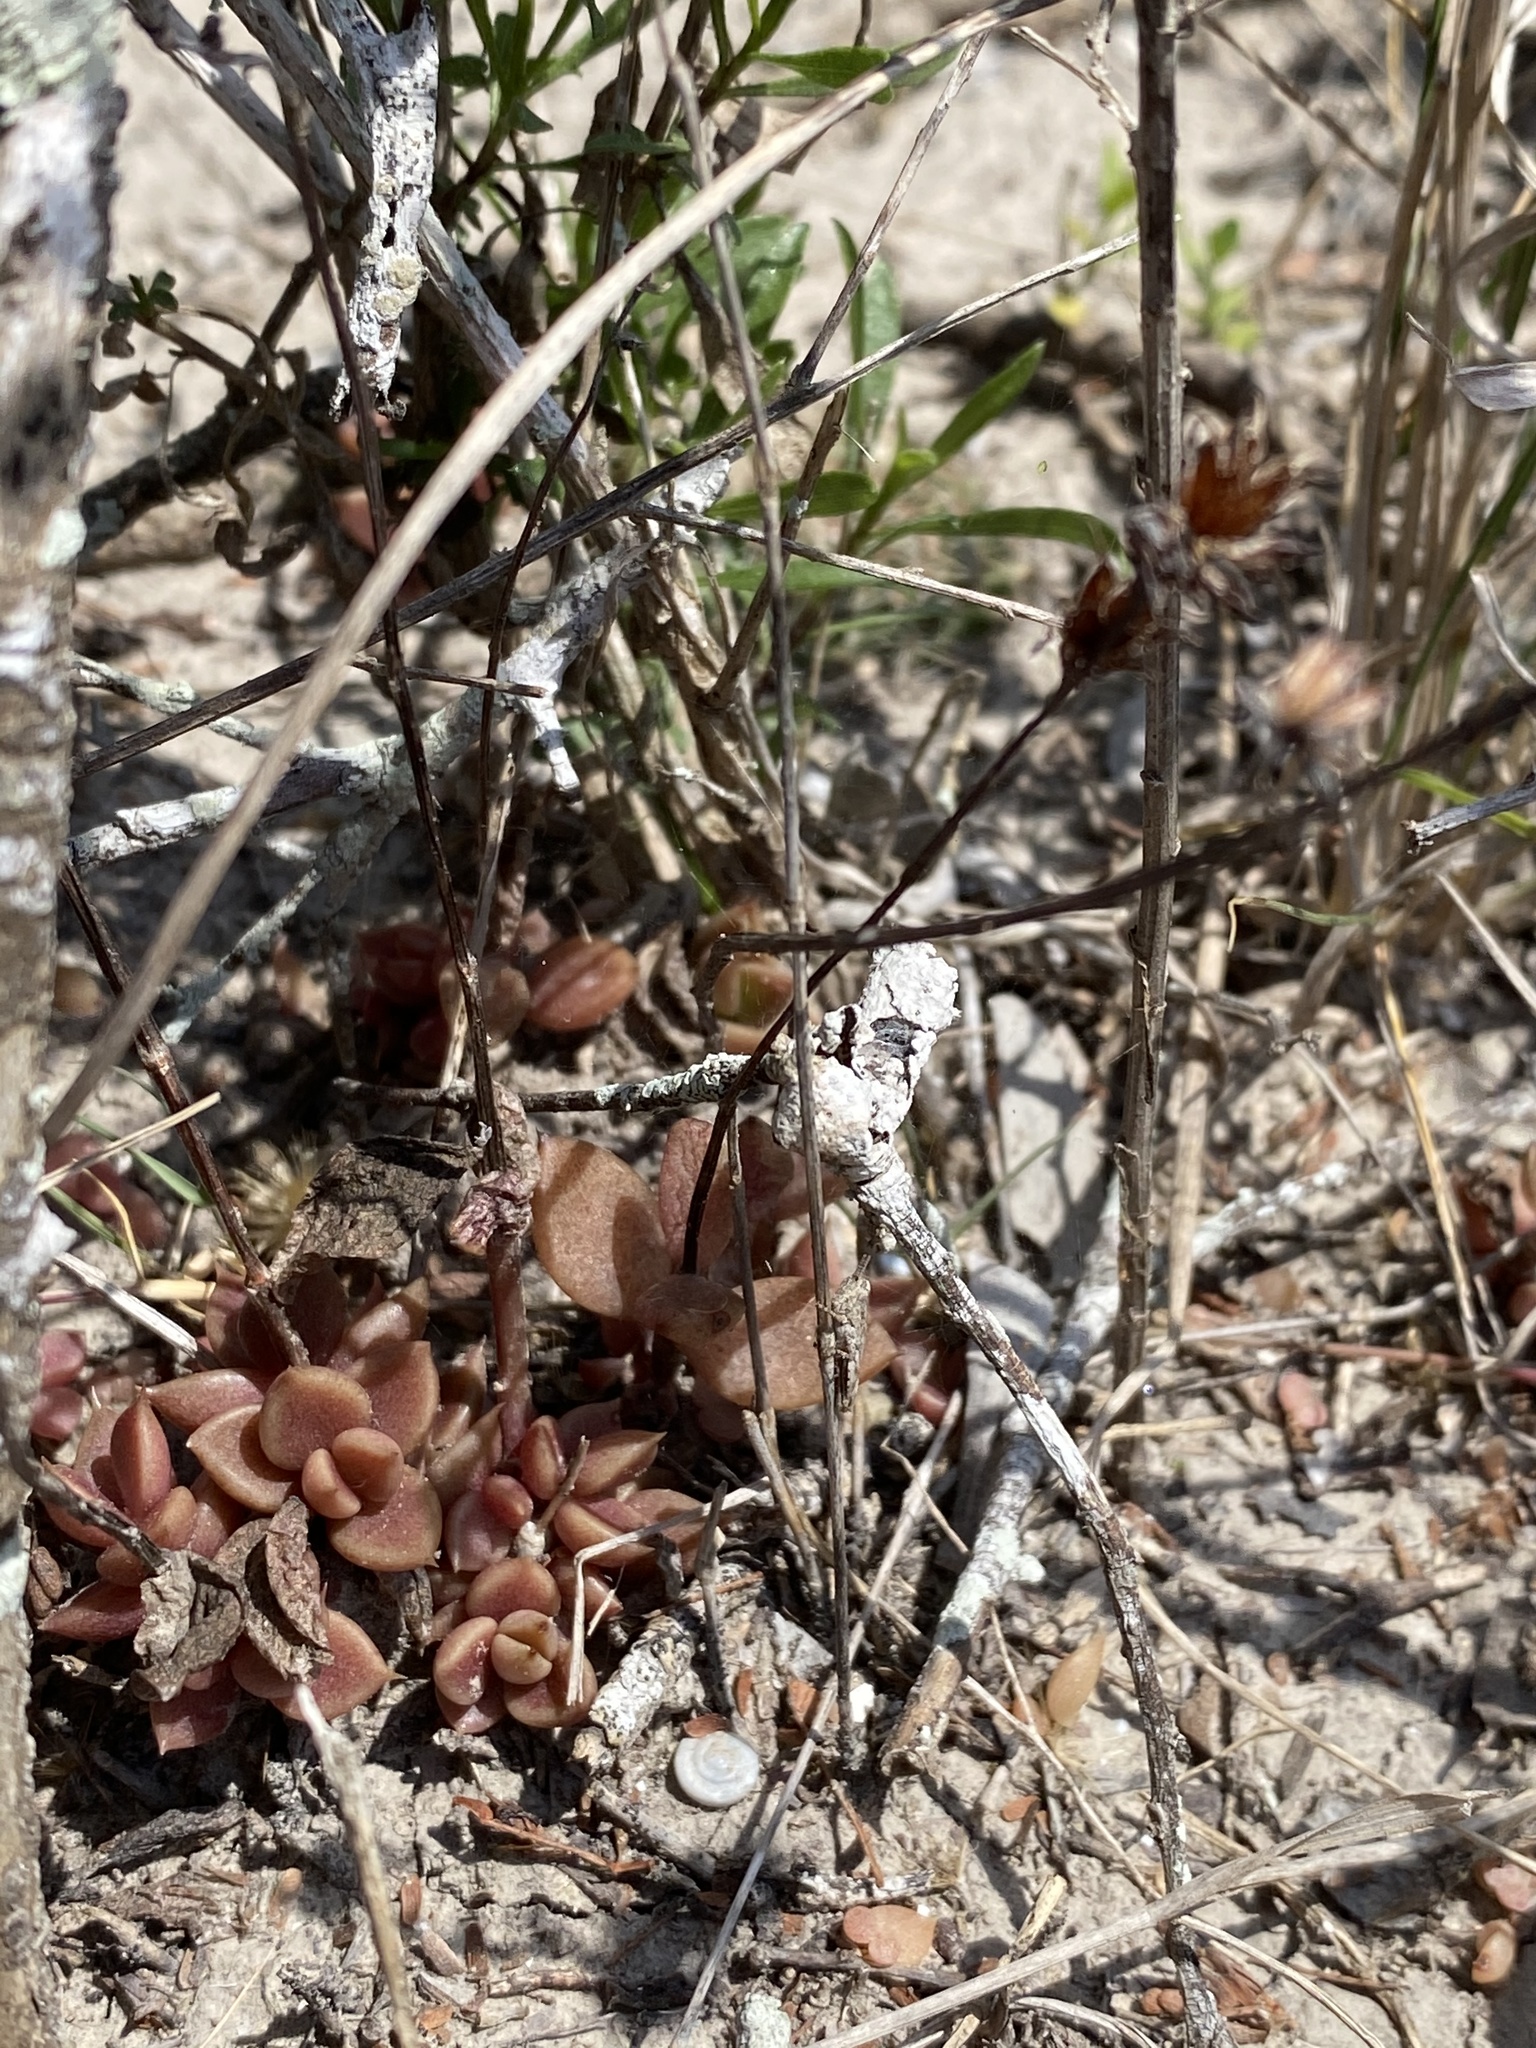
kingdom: Plantae
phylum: Tracheophyta
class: Magnoliopsida
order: Saxifragales
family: Crassulaceae
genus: Lenophyllum
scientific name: Lenophyllum texanum
